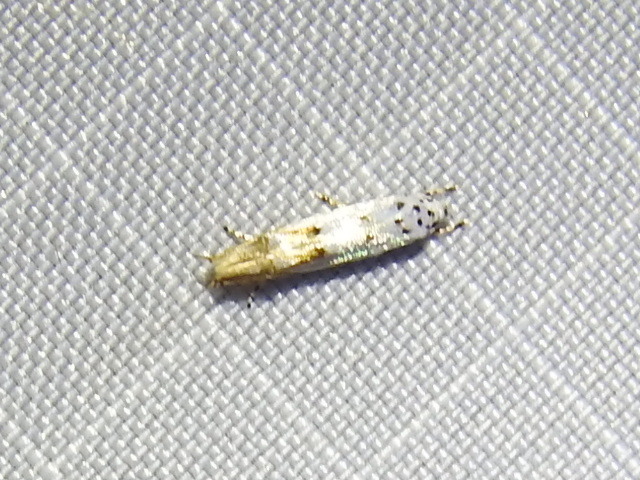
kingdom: Animalia
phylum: Arthropoda
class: Insecta
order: Lepidoptera
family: Momphidae
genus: Mompha
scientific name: Mompha eloisella
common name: Red-streaked mompha moth
